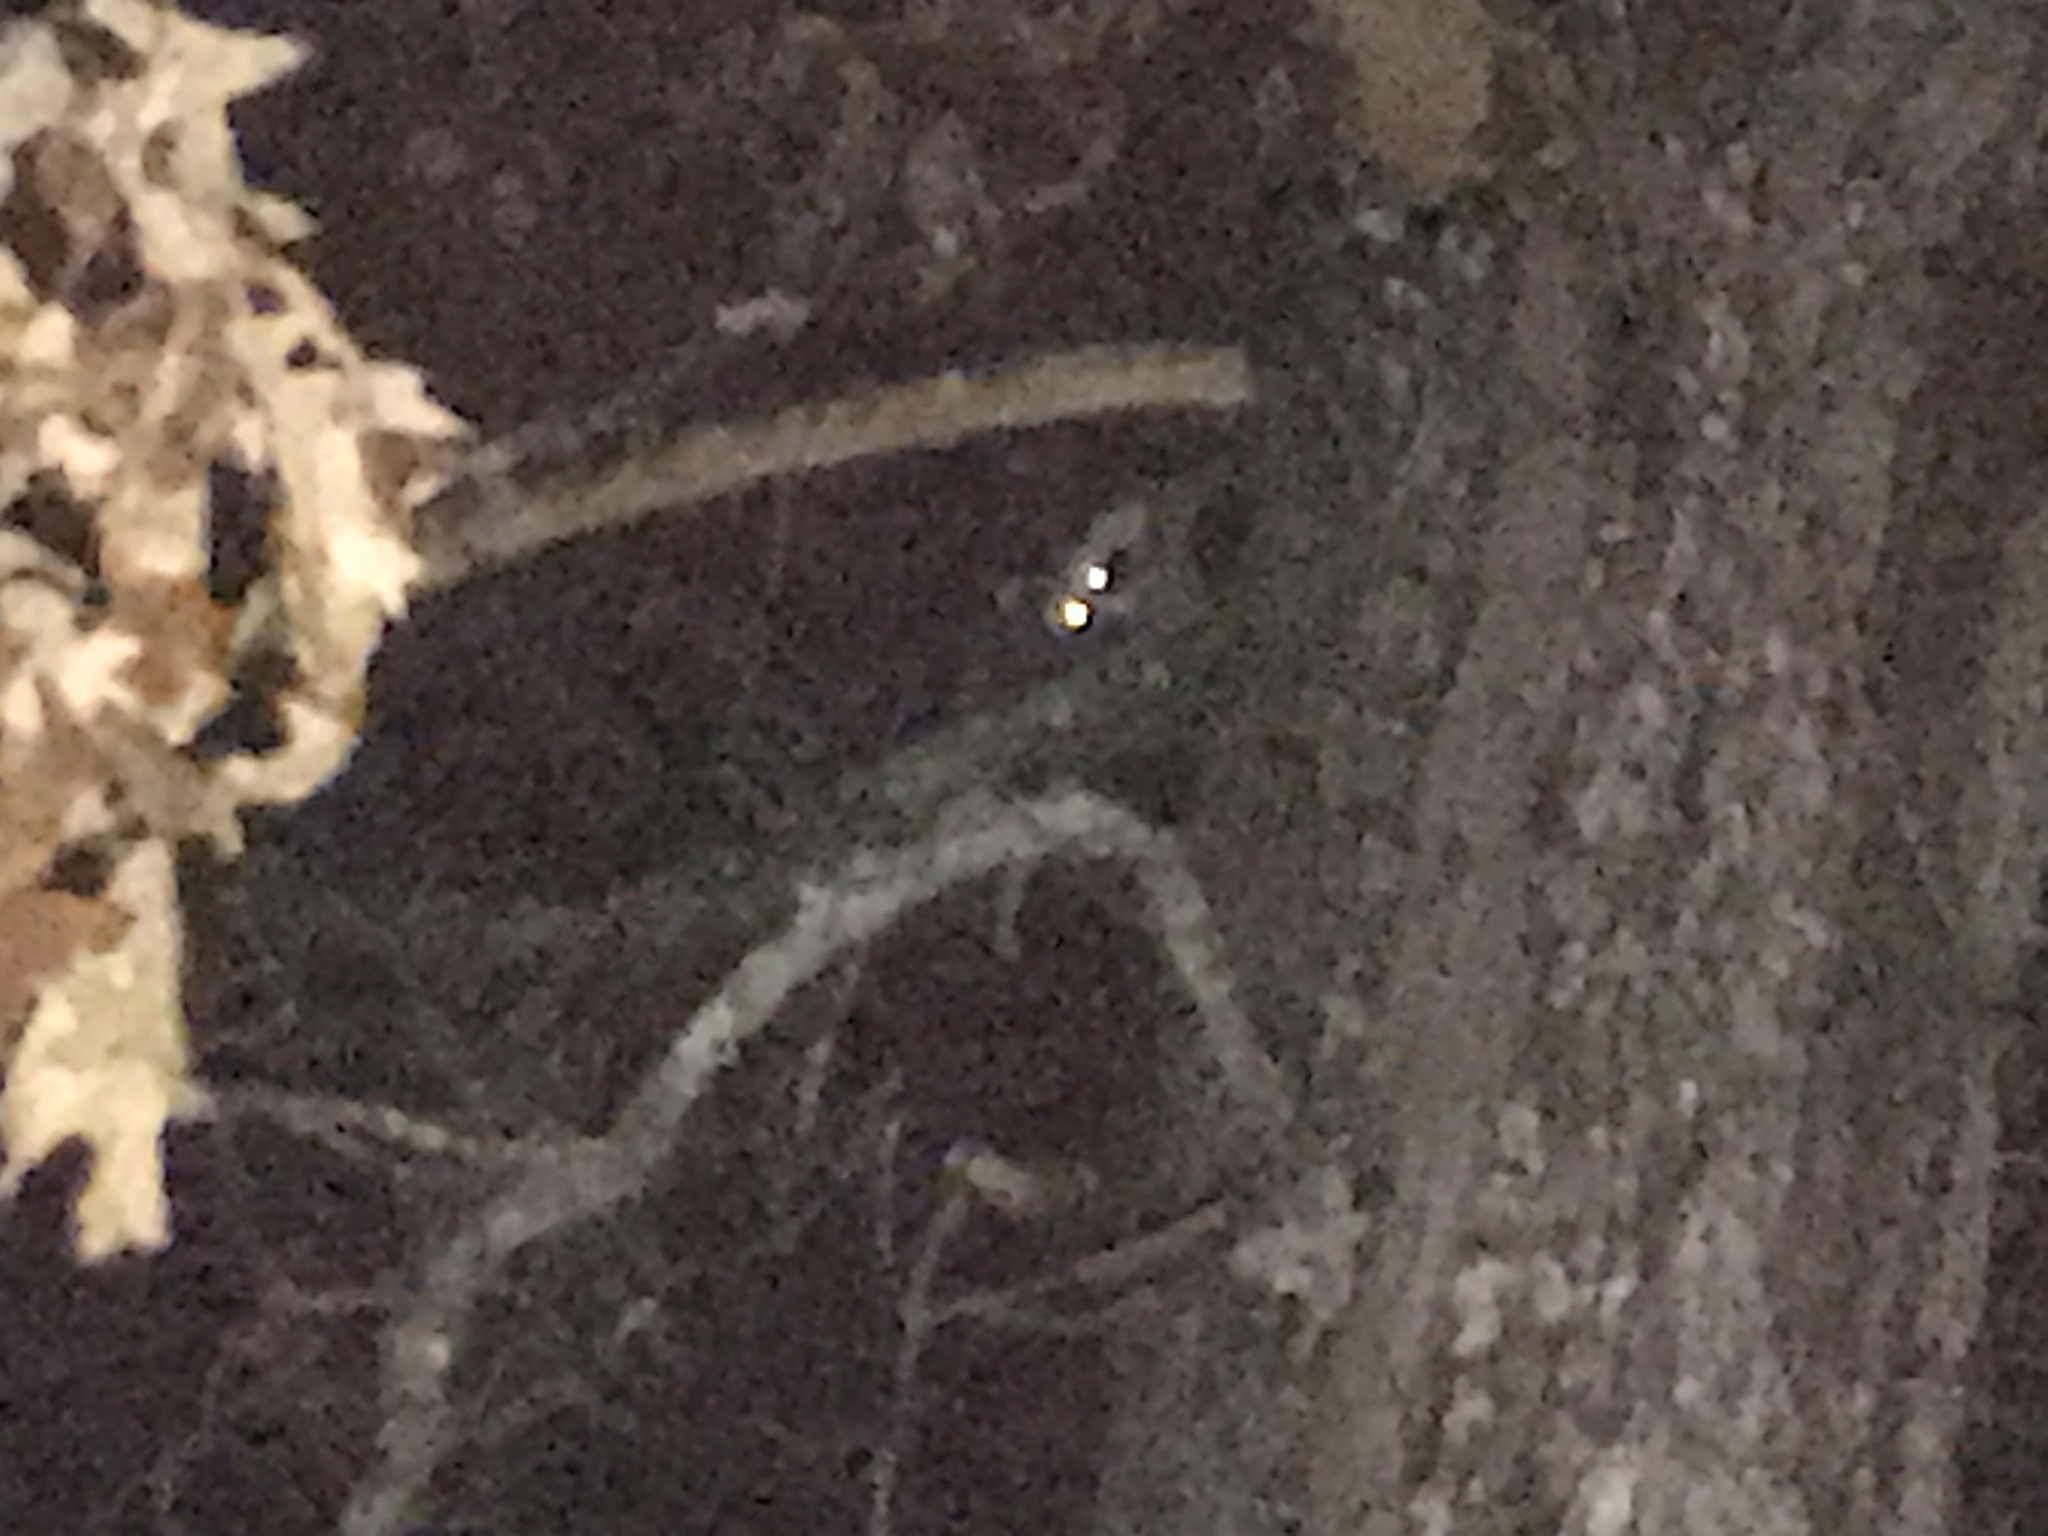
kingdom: Animalia
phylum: Chordata
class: Mammalia
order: Carnivora
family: Procyonidae
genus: Procyon
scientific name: Procyon lotor
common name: Raccoon
